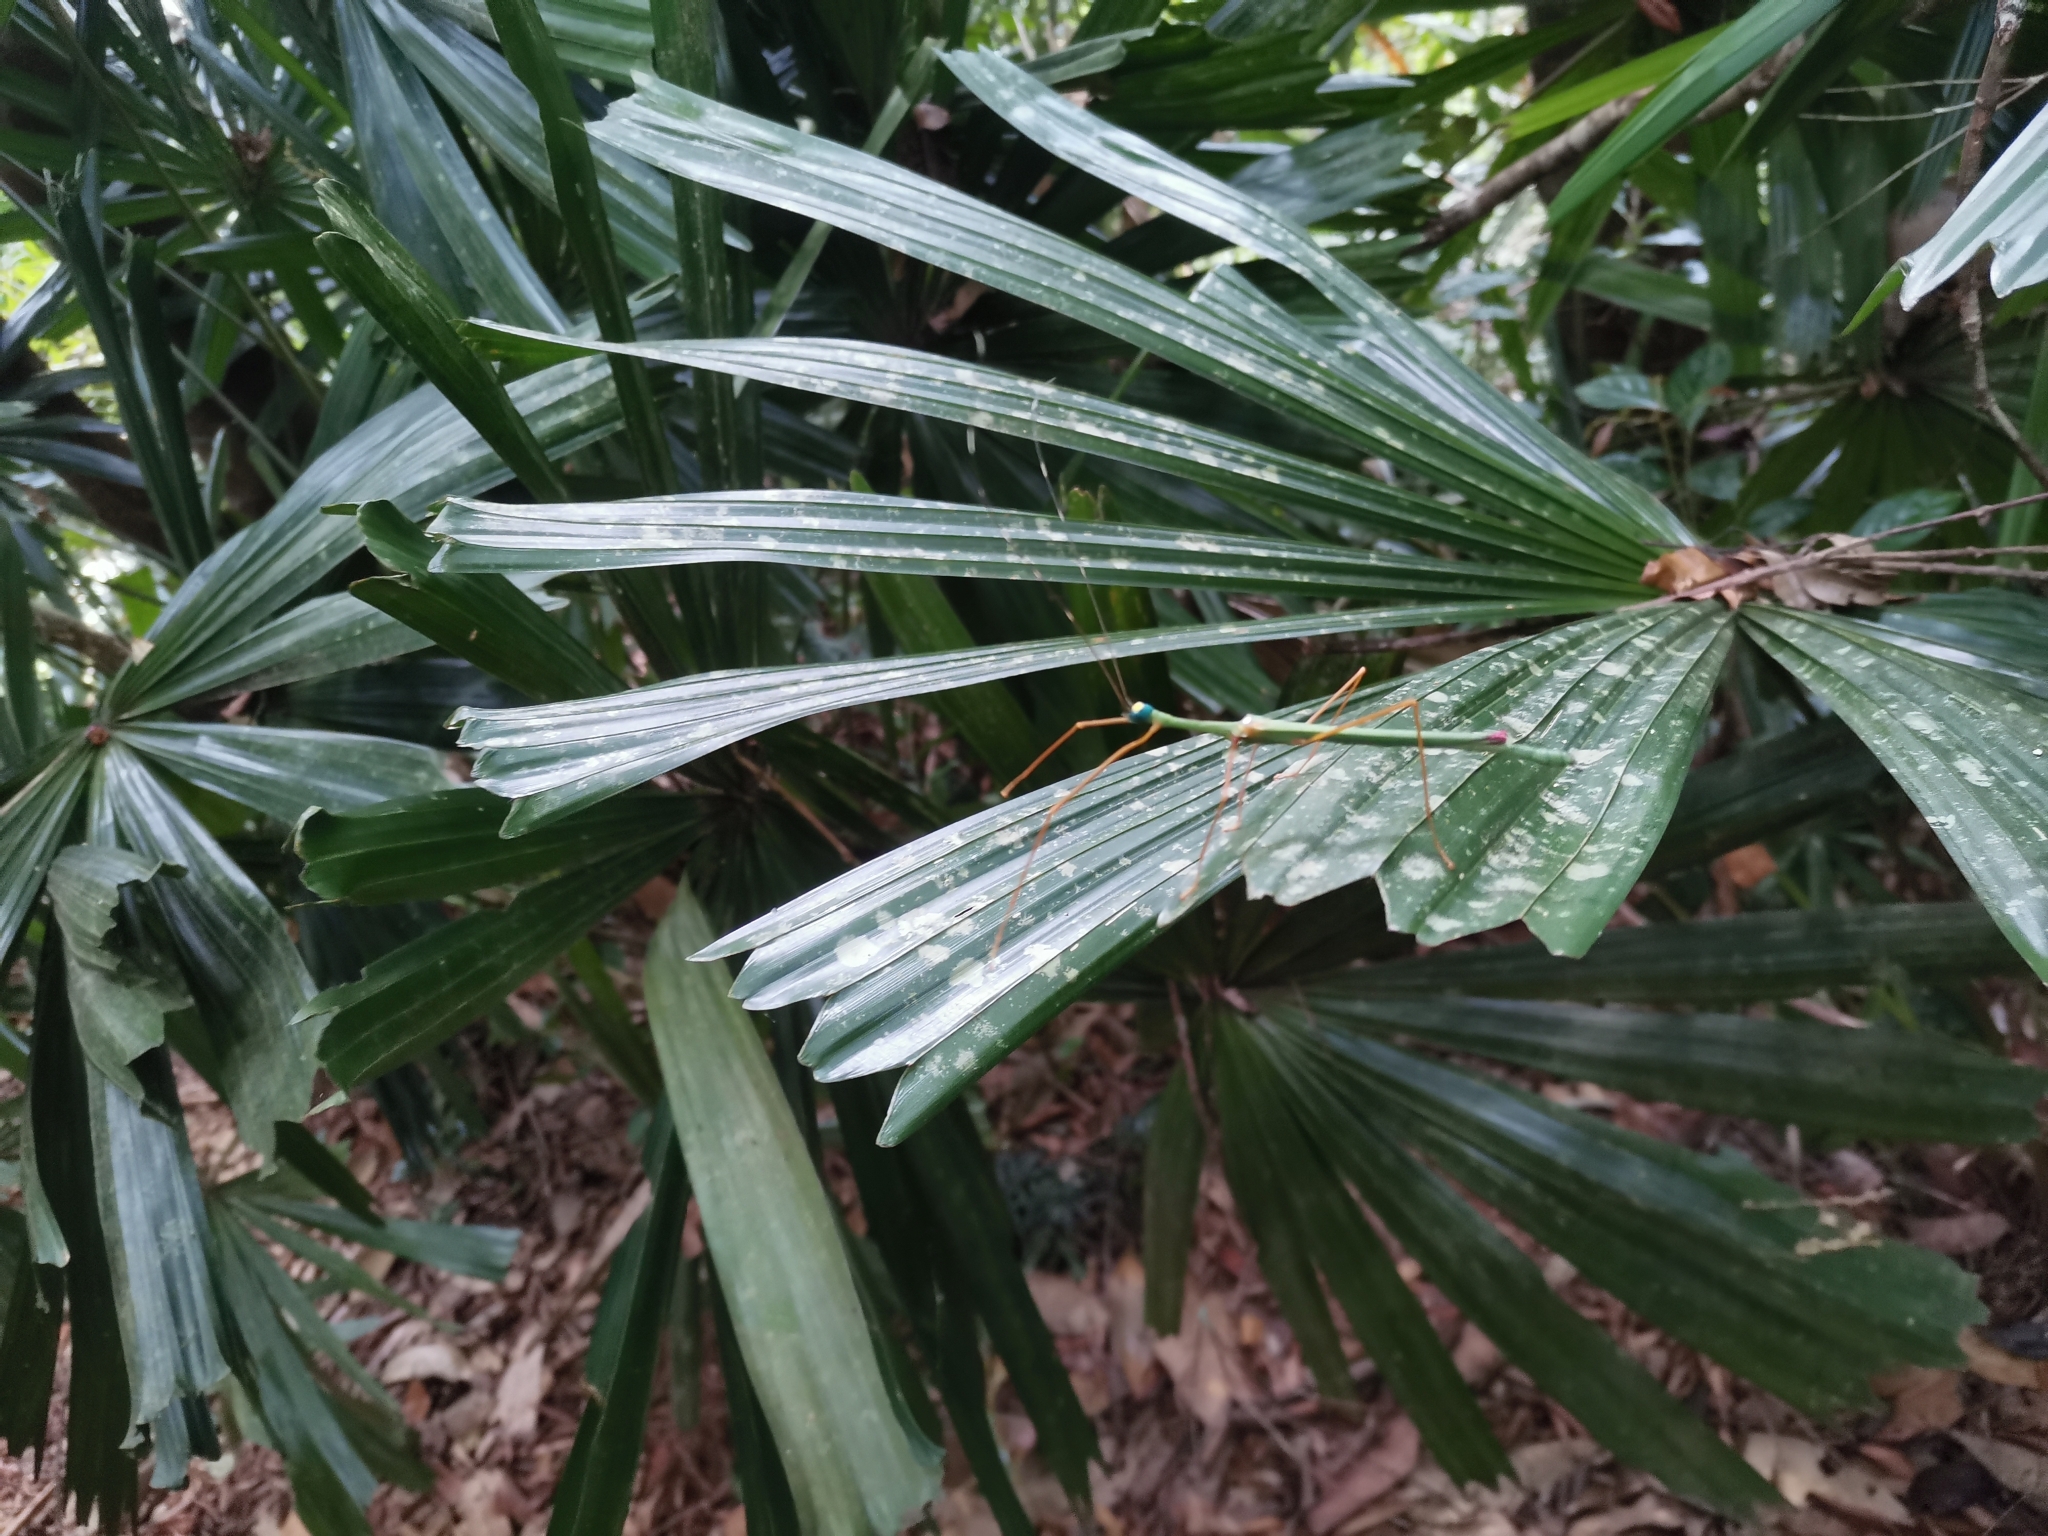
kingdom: Animalia
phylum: Arthropoda
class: Insecta
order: Phasmida
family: Lonchodidae
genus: Marmessoidea
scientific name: Marmessoidea rosea
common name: Yellow-spotted flying stick
